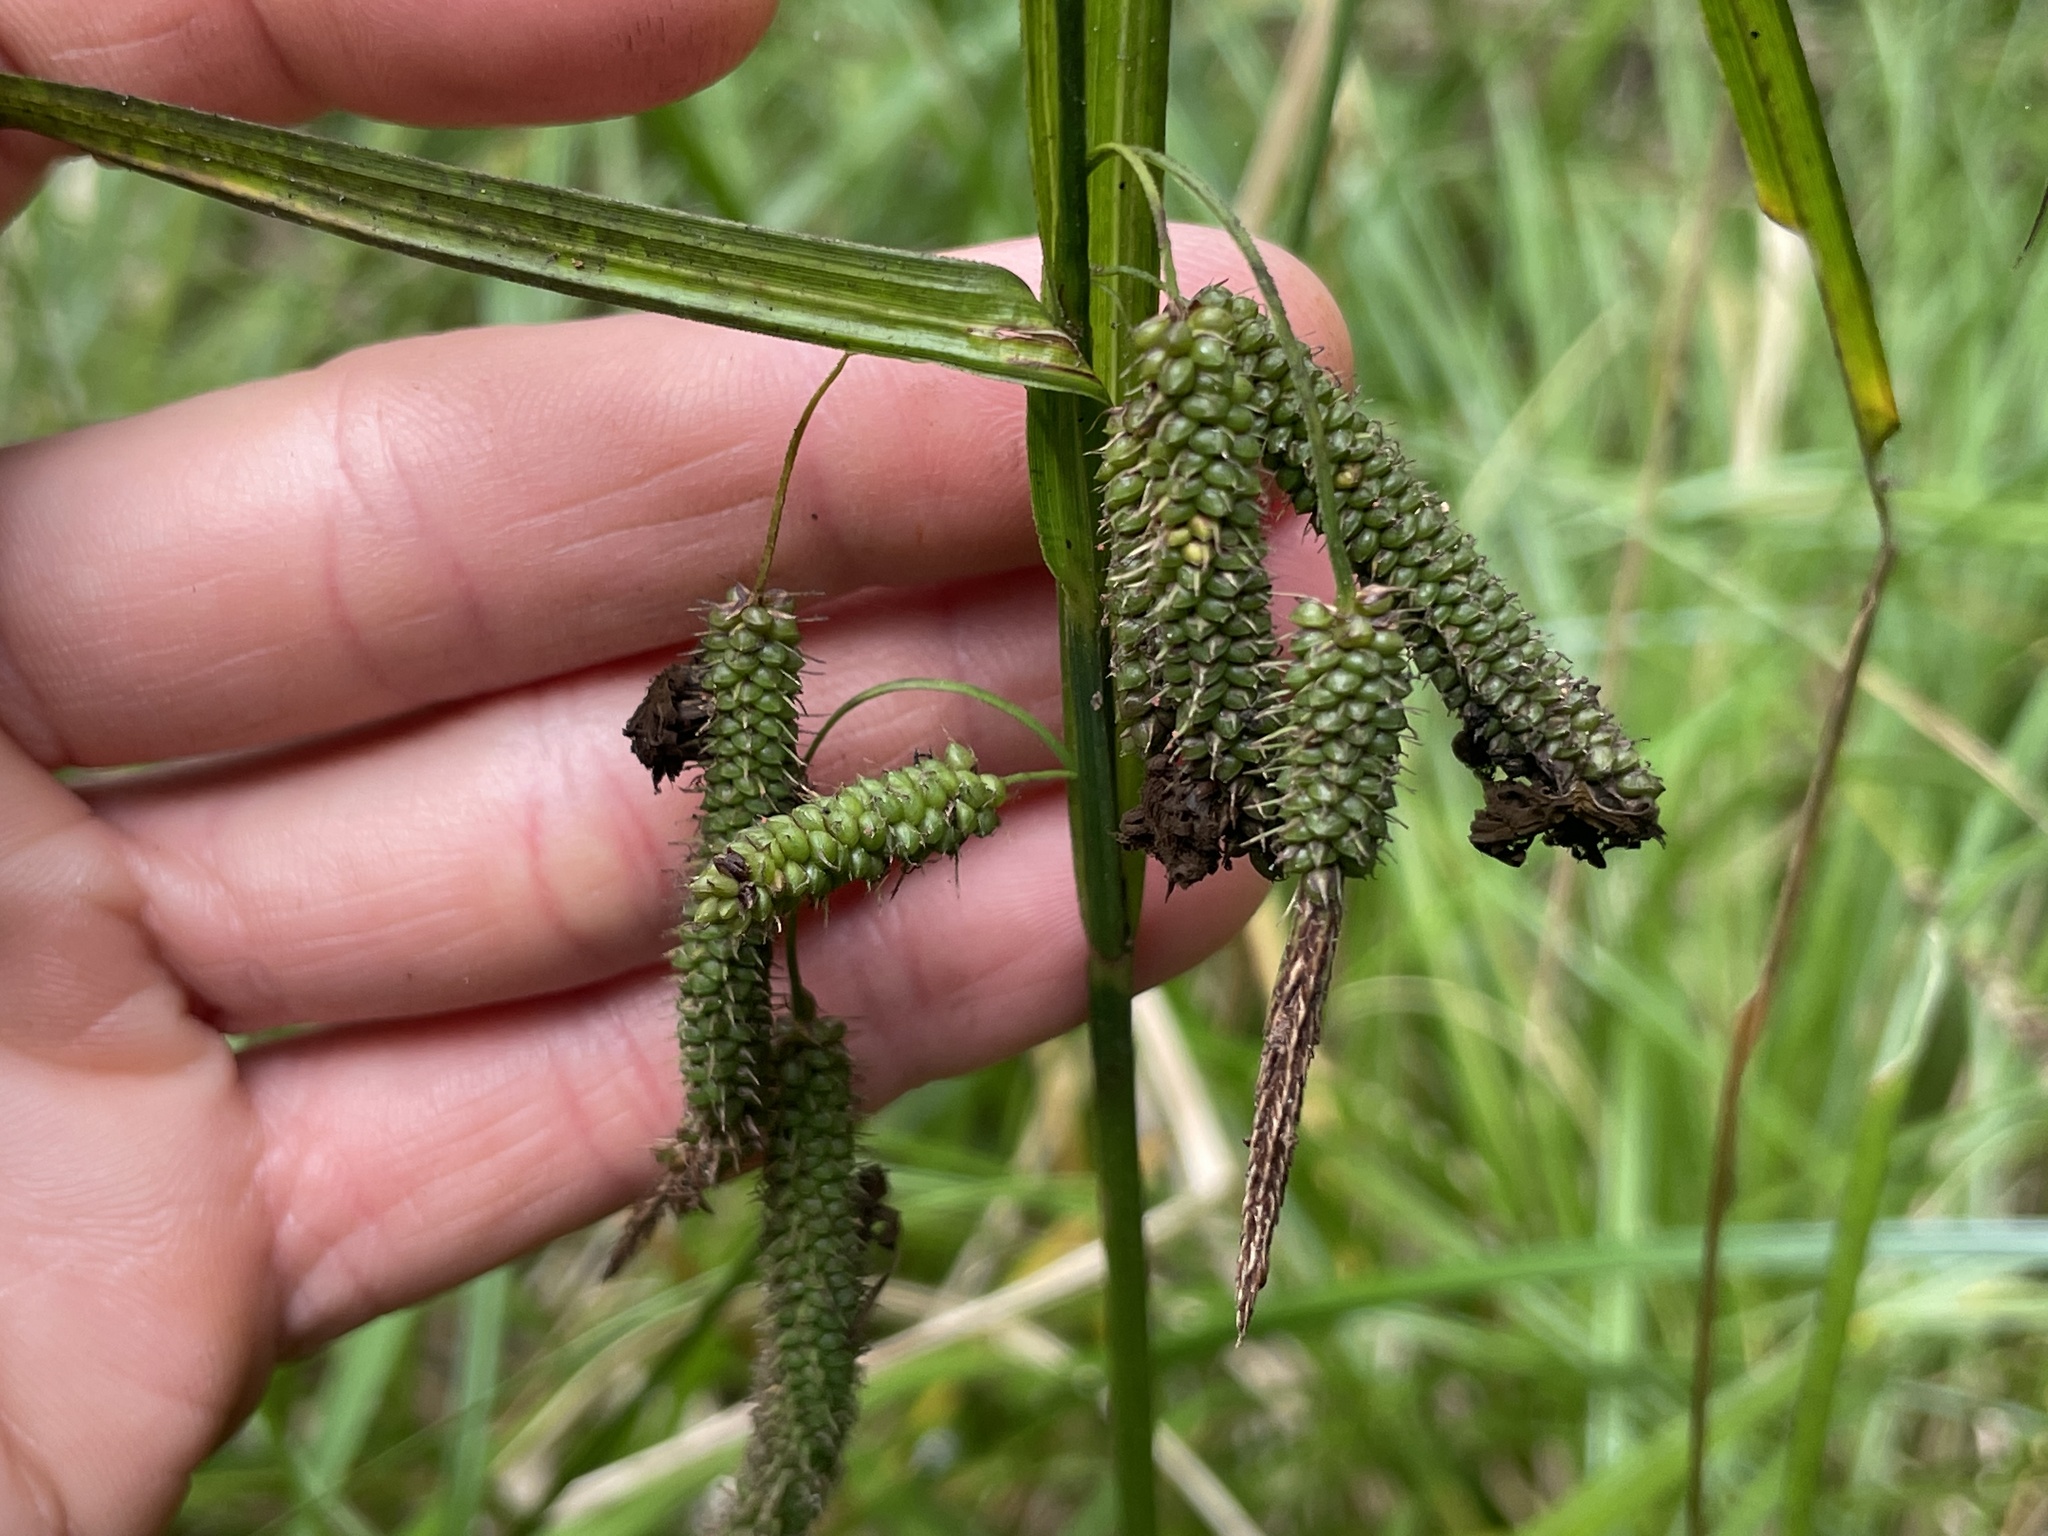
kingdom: Plantae
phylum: Tracheophyta
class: Liliopsida
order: Poales
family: Cyperaceae
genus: Carex
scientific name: Carex geminata
